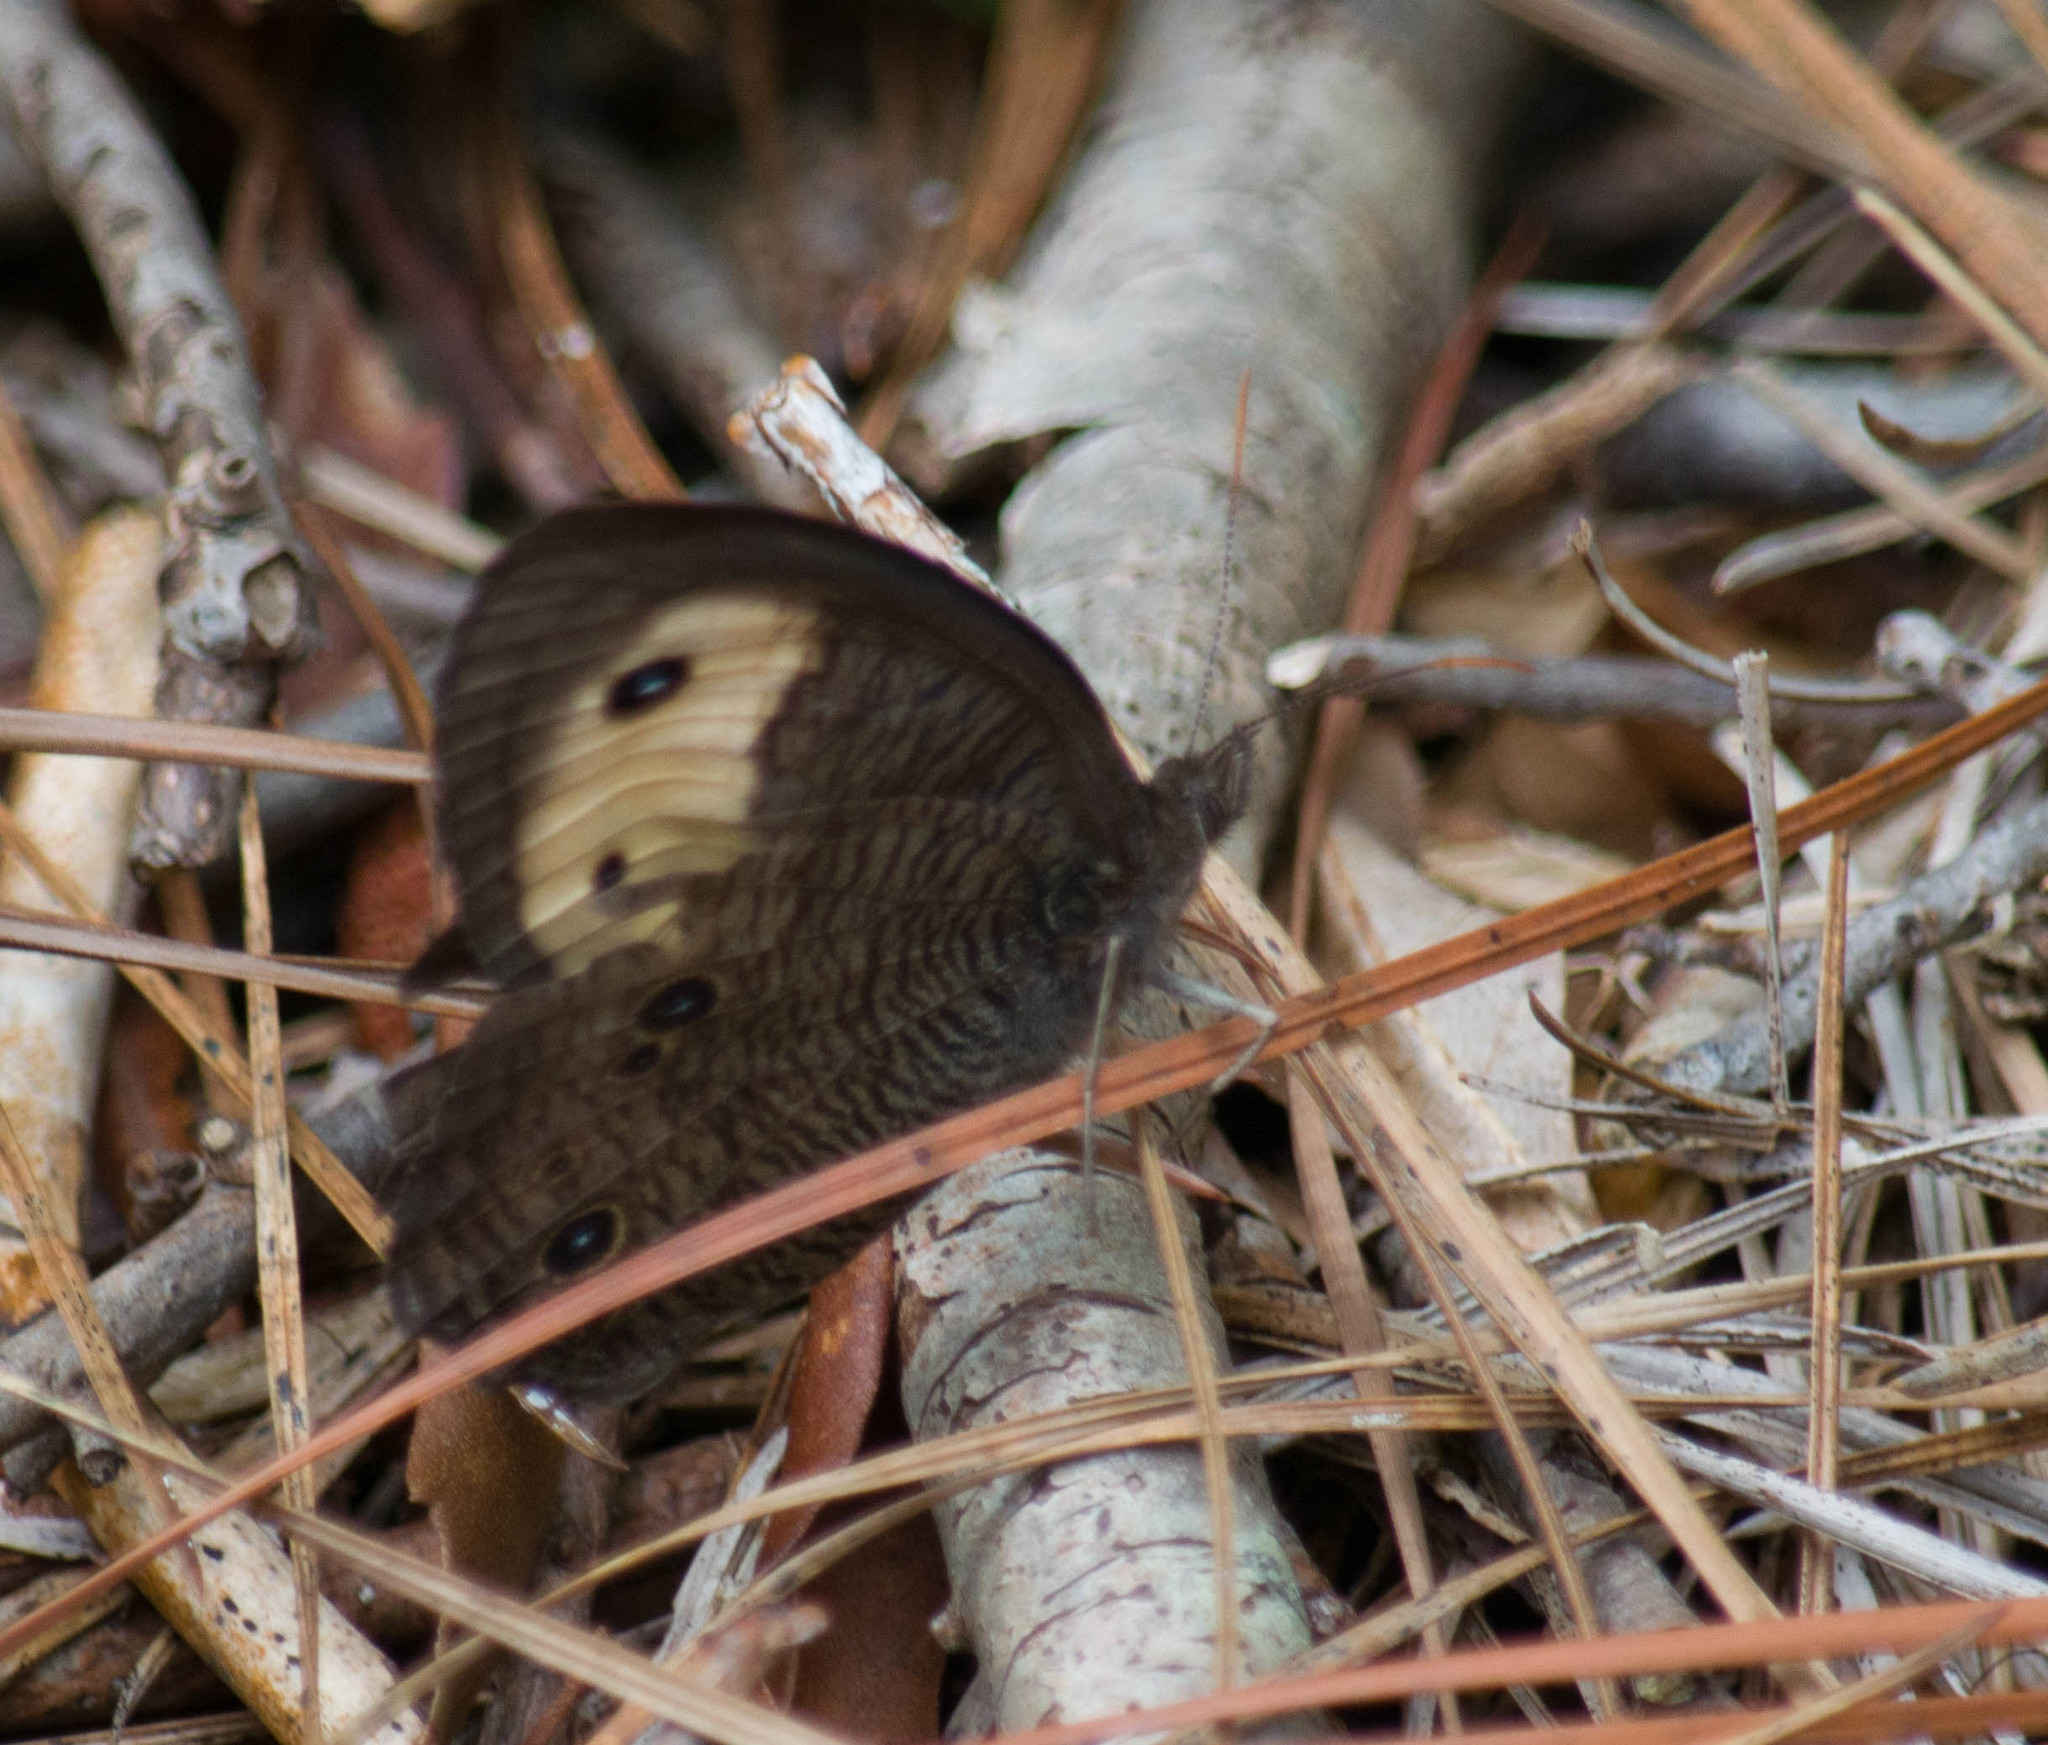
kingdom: Animalia
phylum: Arthropoda
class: Insecta
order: Lepidoptera
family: Nymphalidae
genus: Cercyonis
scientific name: Cercyonis pegala
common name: Common wood-nymph
